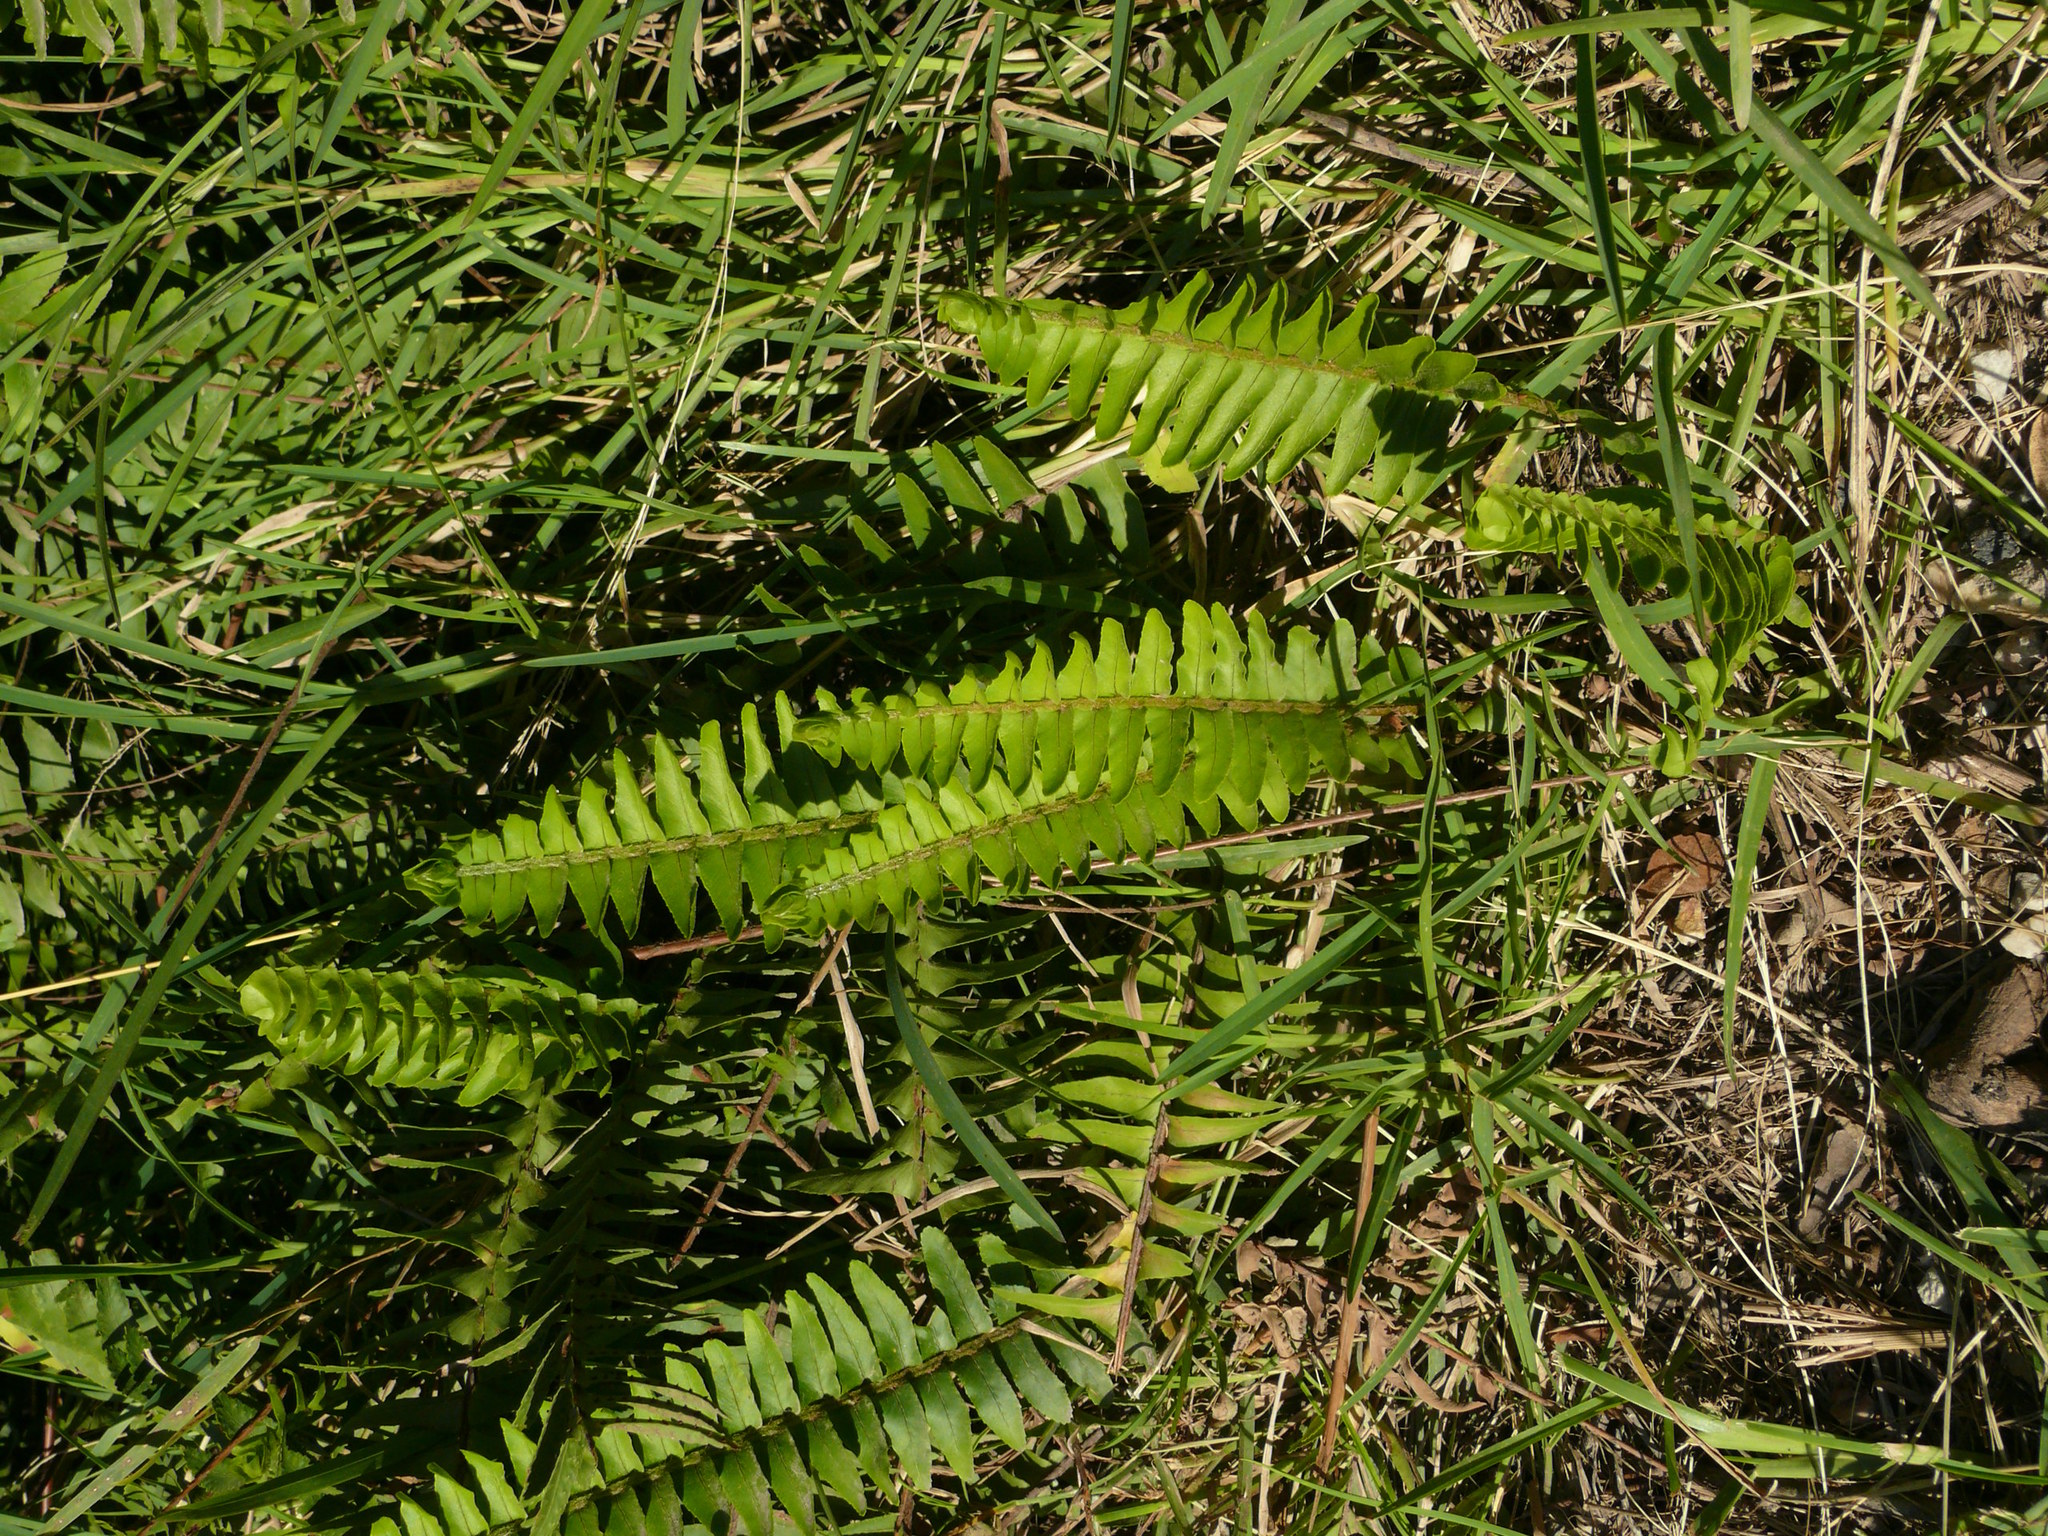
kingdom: Plantae
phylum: Tracheophyta
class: Polypodiopsida
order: Polypodiales
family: Nephrolepidaceae
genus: Nephrolepis
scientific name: Nephrolepis cordifolia
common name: Narrow swordfern
